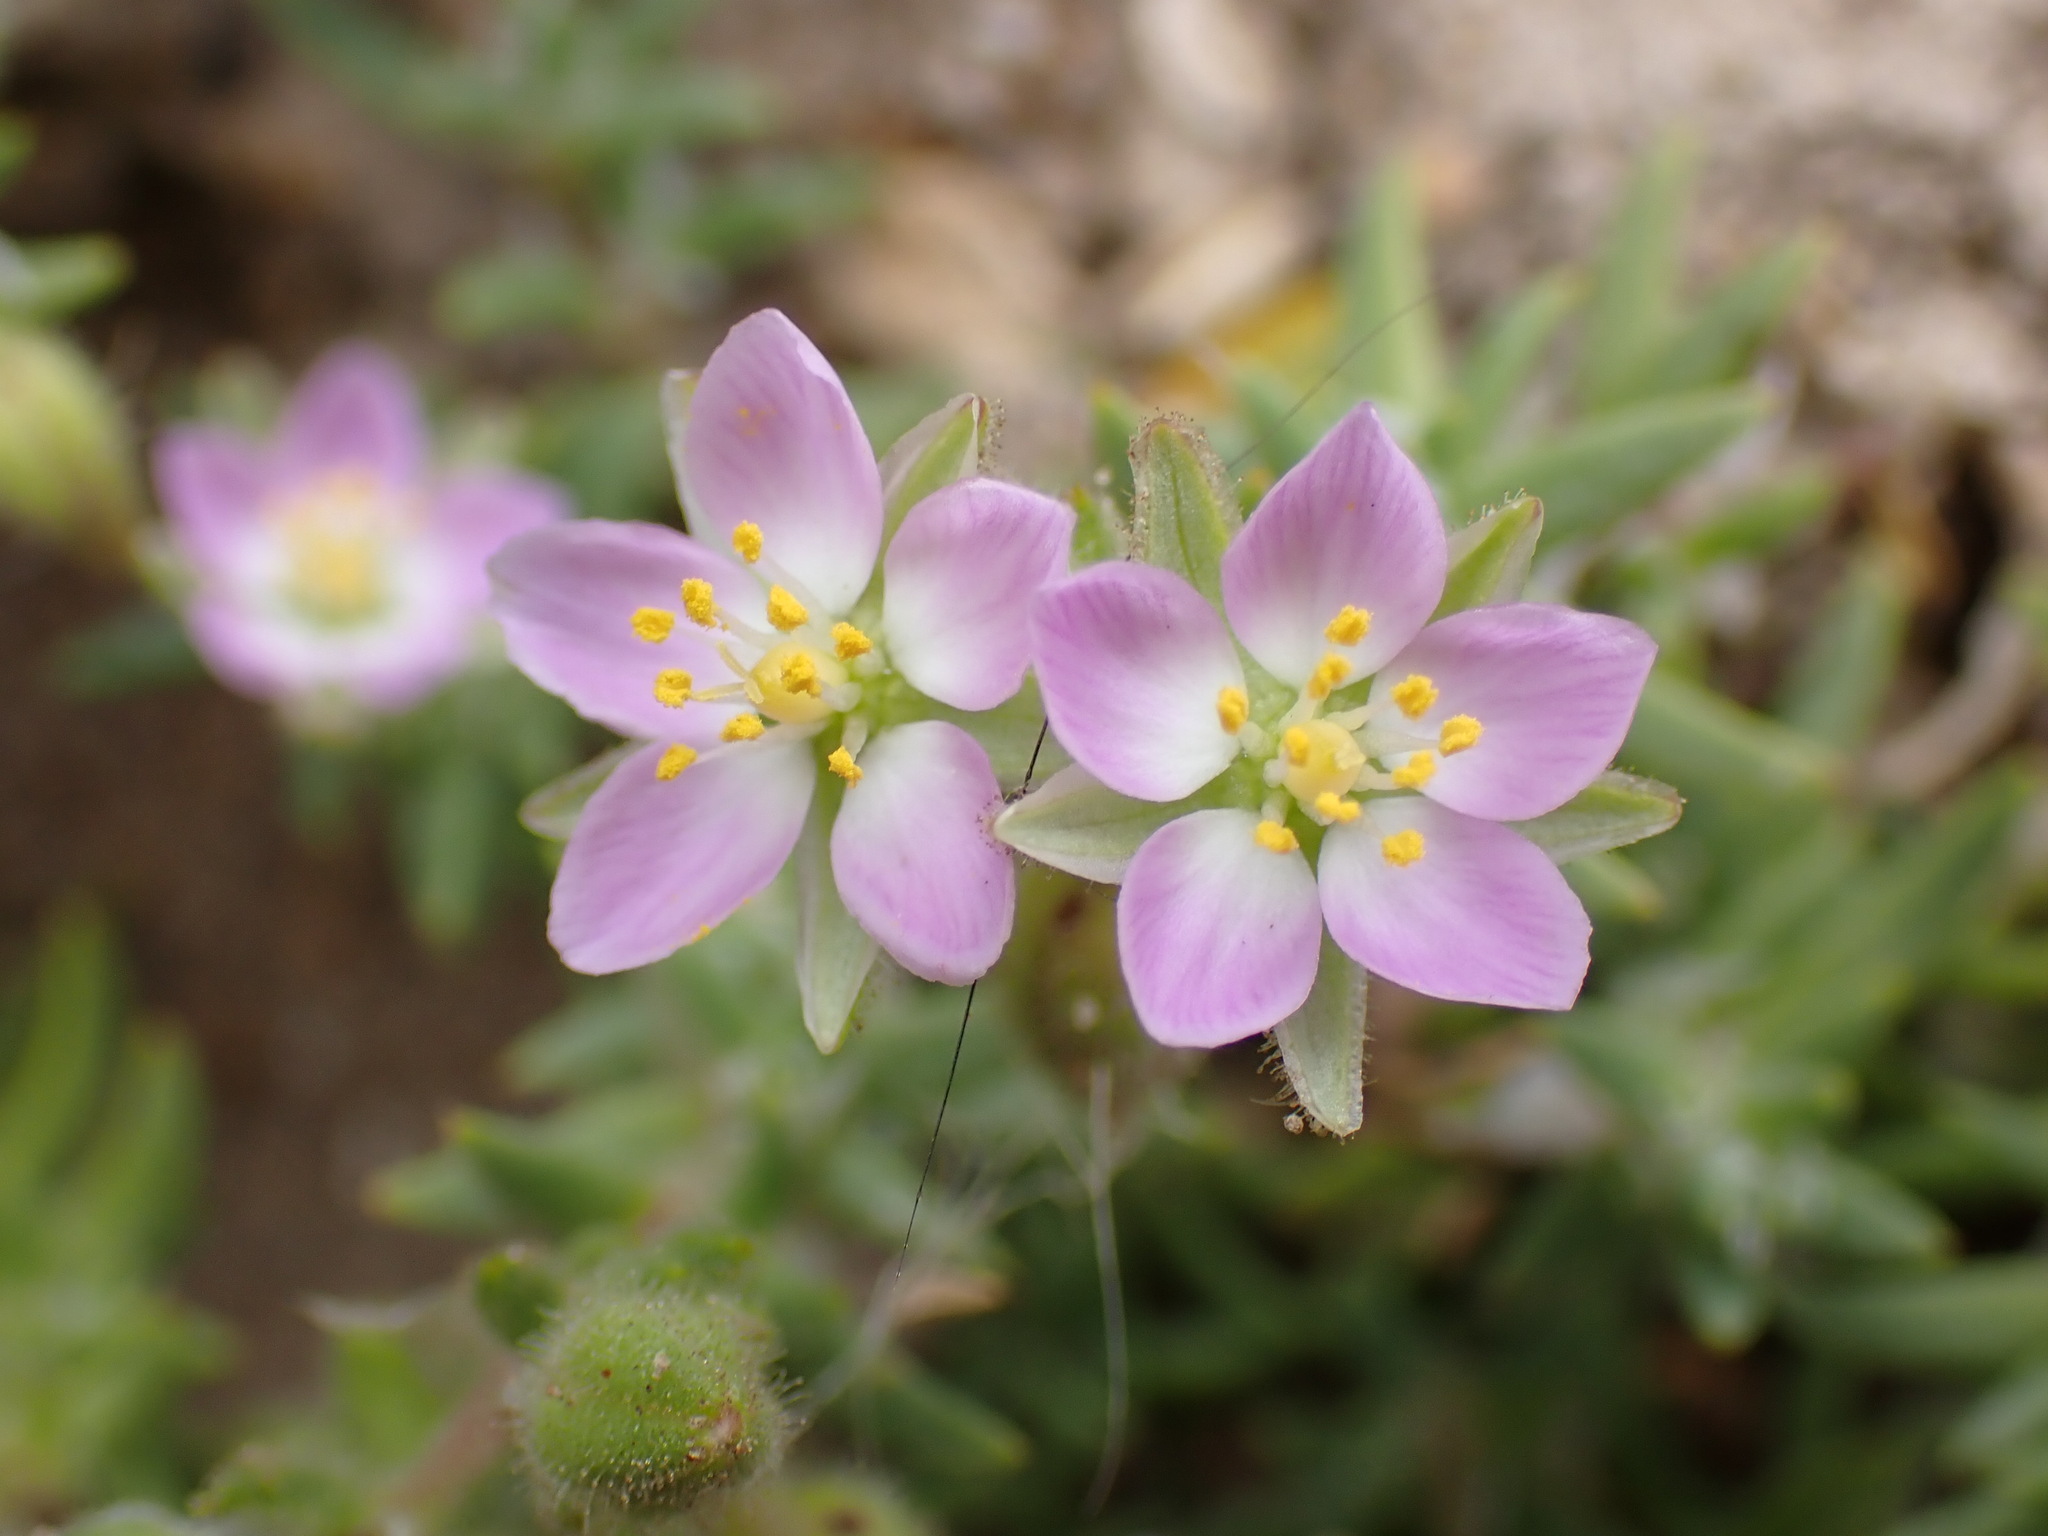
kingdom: Plantae
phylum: Tracheophyta
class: Magnoliopsida
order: Caryophyllales
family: Caryophyllaceae
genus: Spergularia
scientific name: Spergularia macrotheca
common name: Beach sand-spurrey
